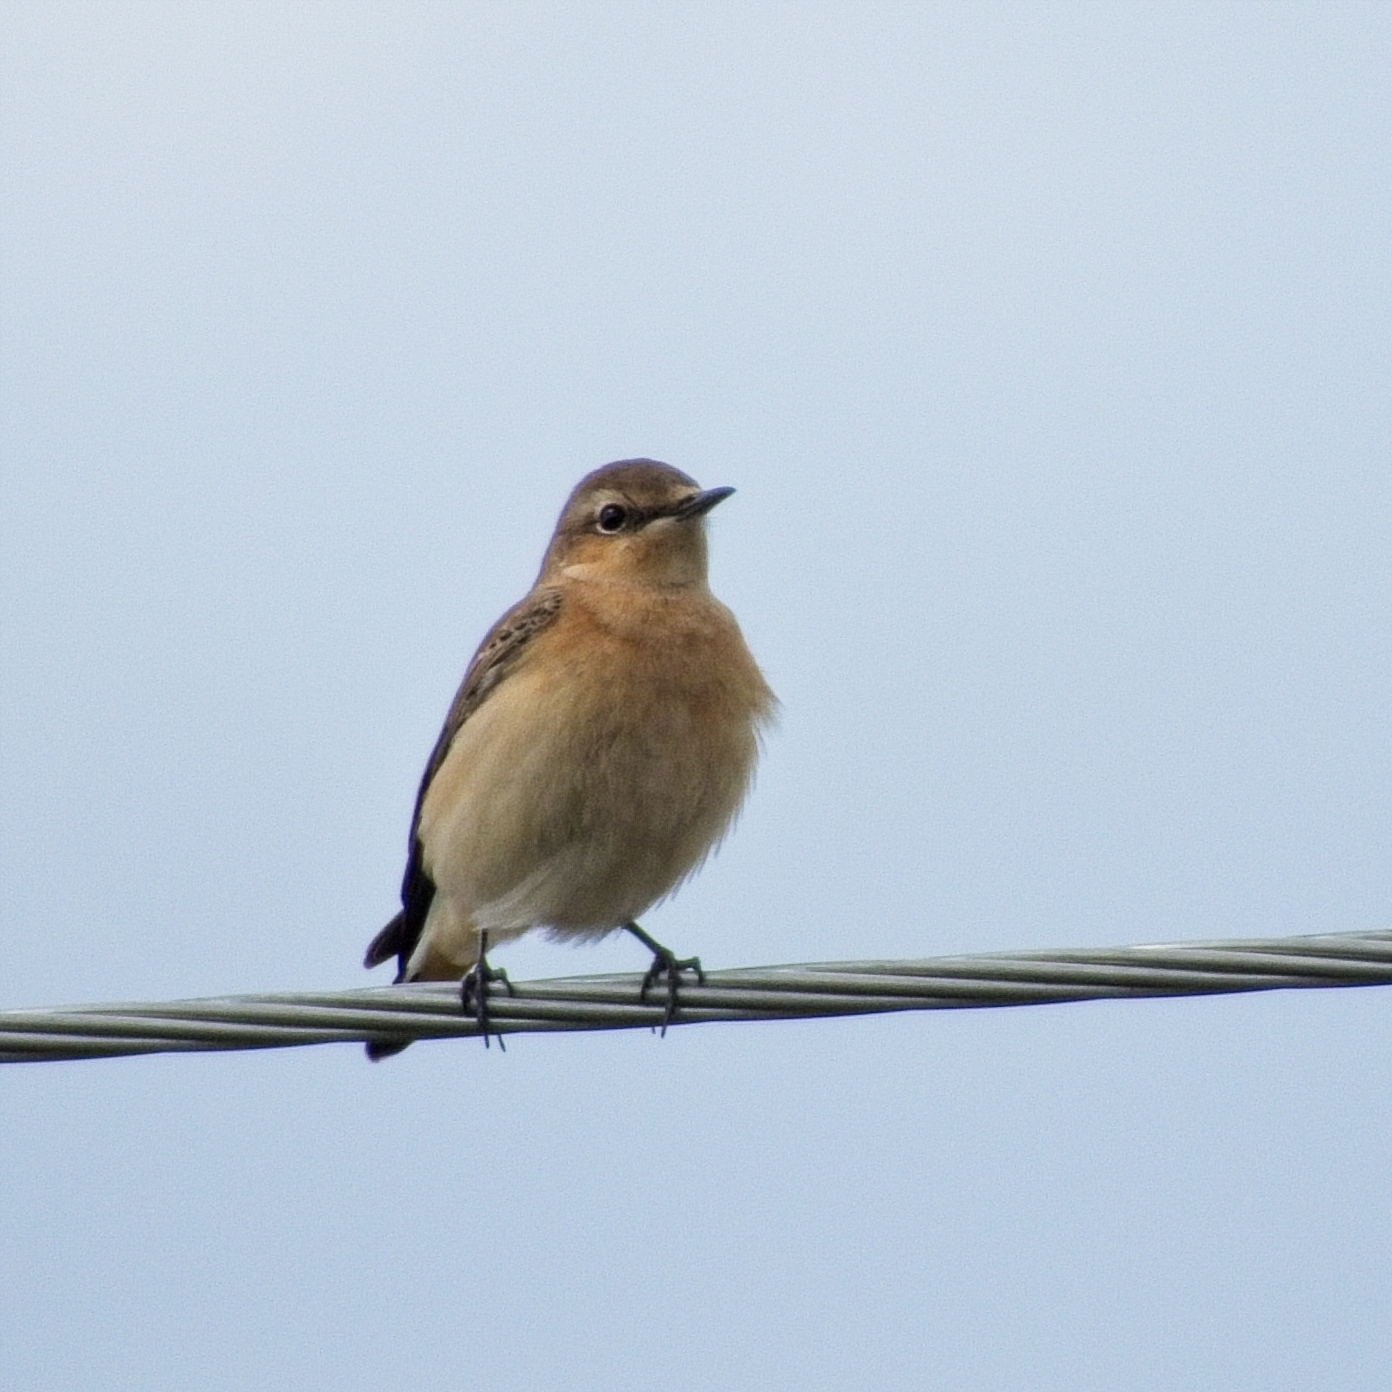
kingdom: Animalia
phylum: Chordata
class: Aves
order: Passeriformes
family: Muscicapidae
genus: Oenanthe
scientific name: Oenanthe oenanthe
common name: Northern wheatear
